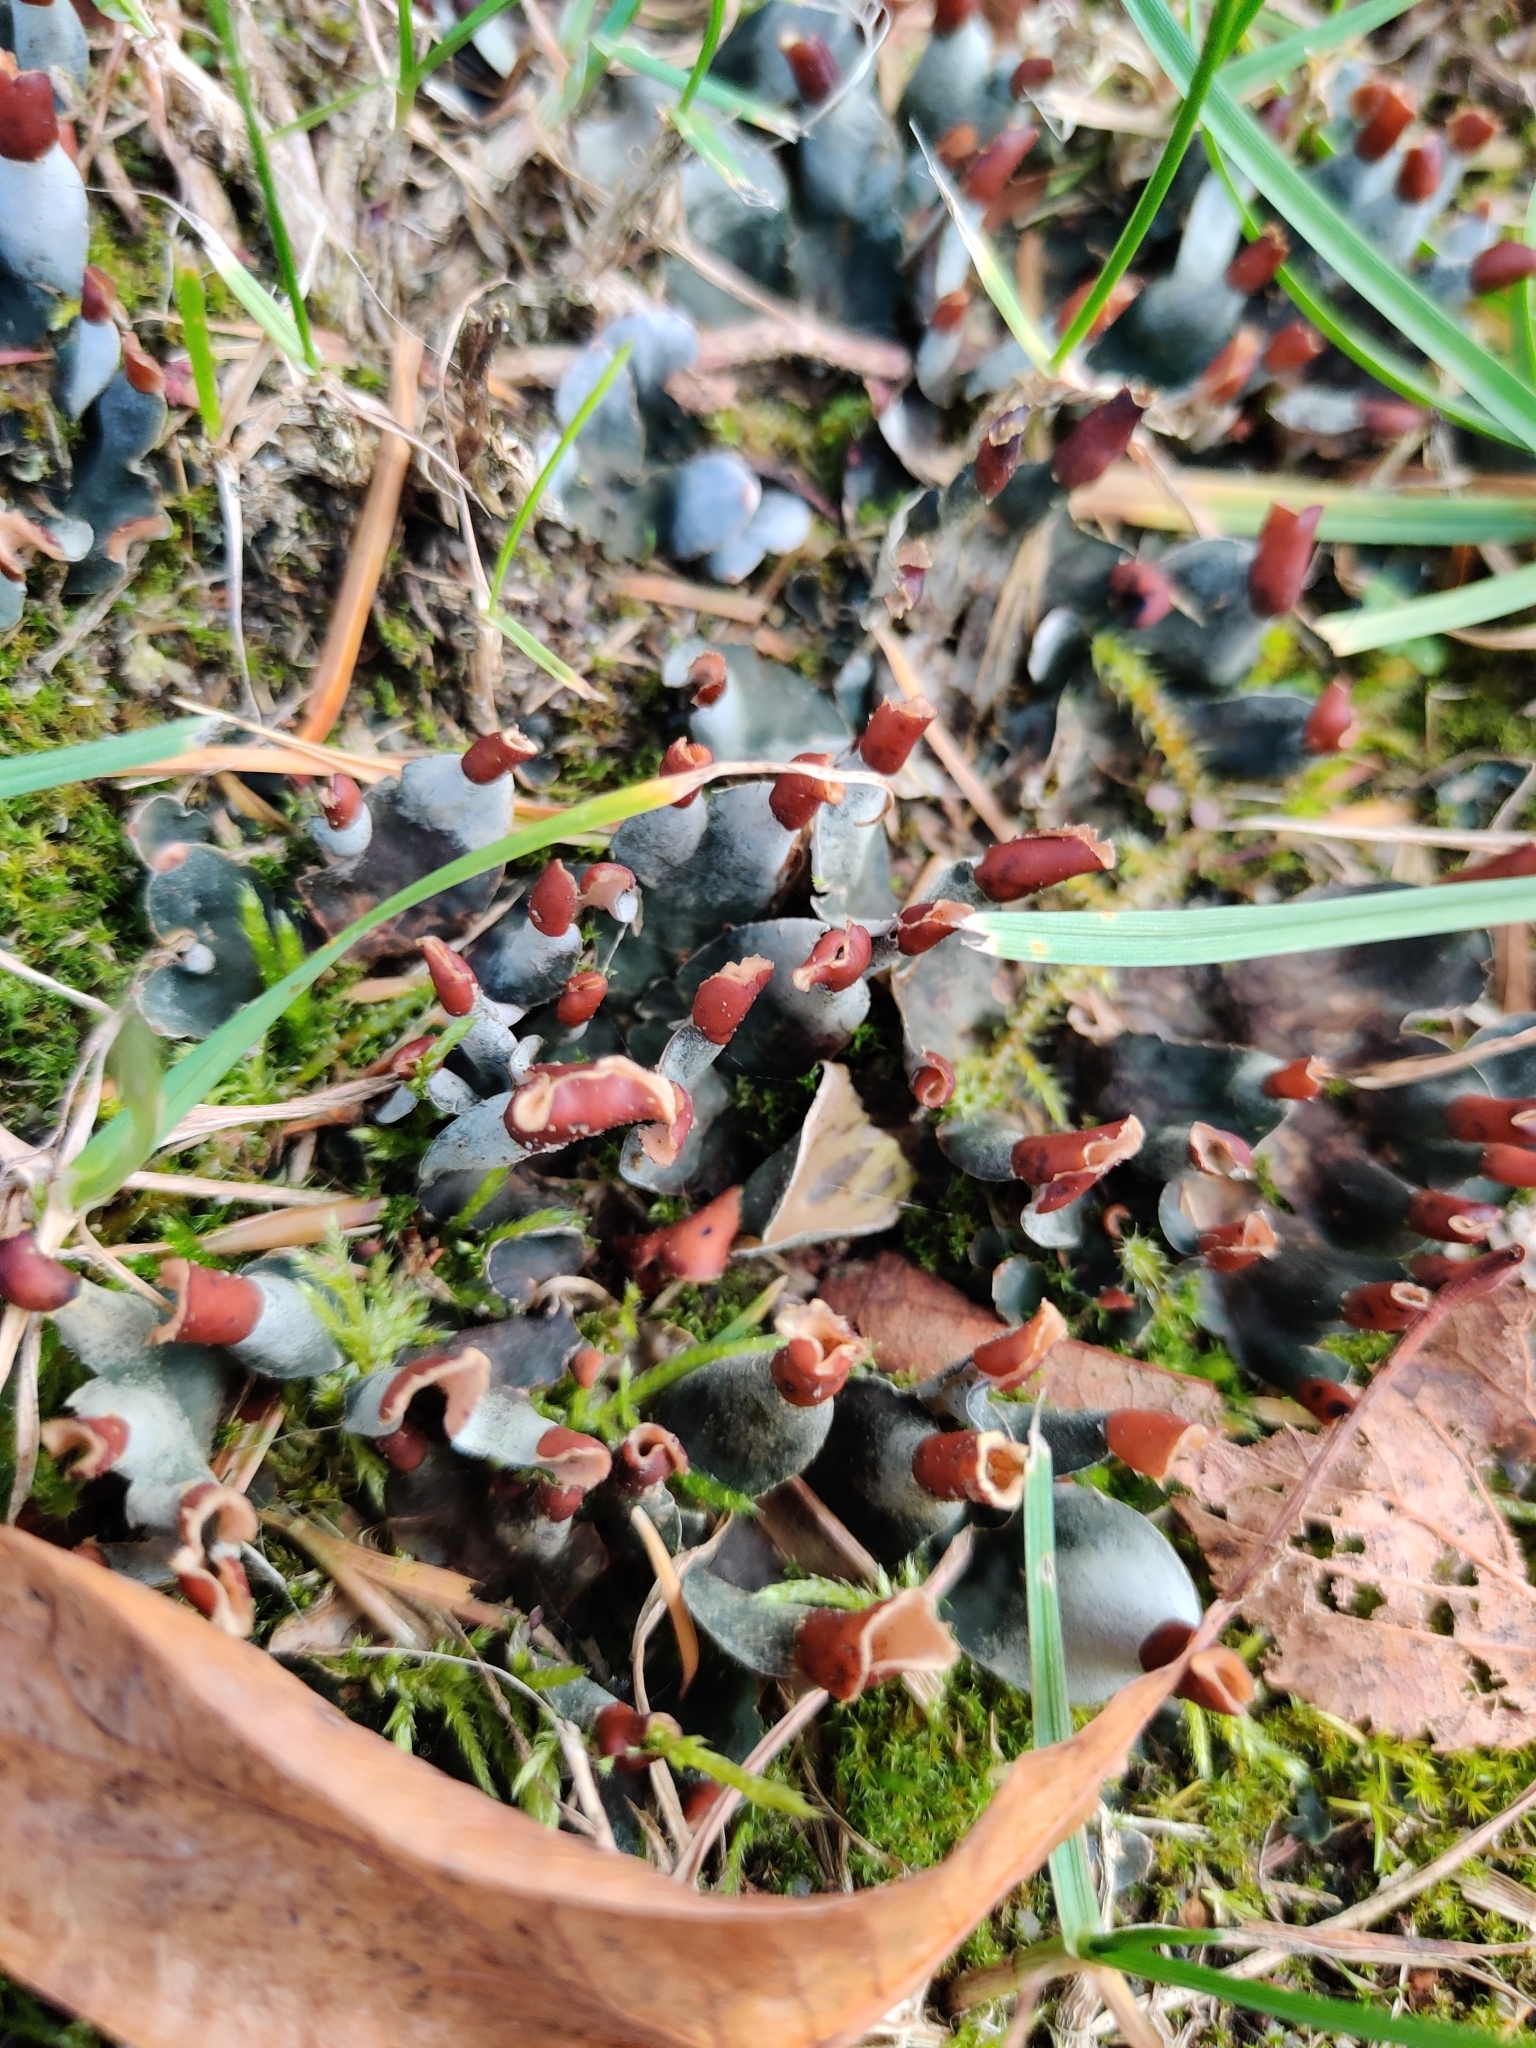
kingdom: Fungi
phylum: Ascomycota
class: Lecanoromycetes
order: Peltigerales
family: Peltigeraceae
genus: Peltigera
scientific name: Peltigera didactyla
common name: Alternating dog lichen
